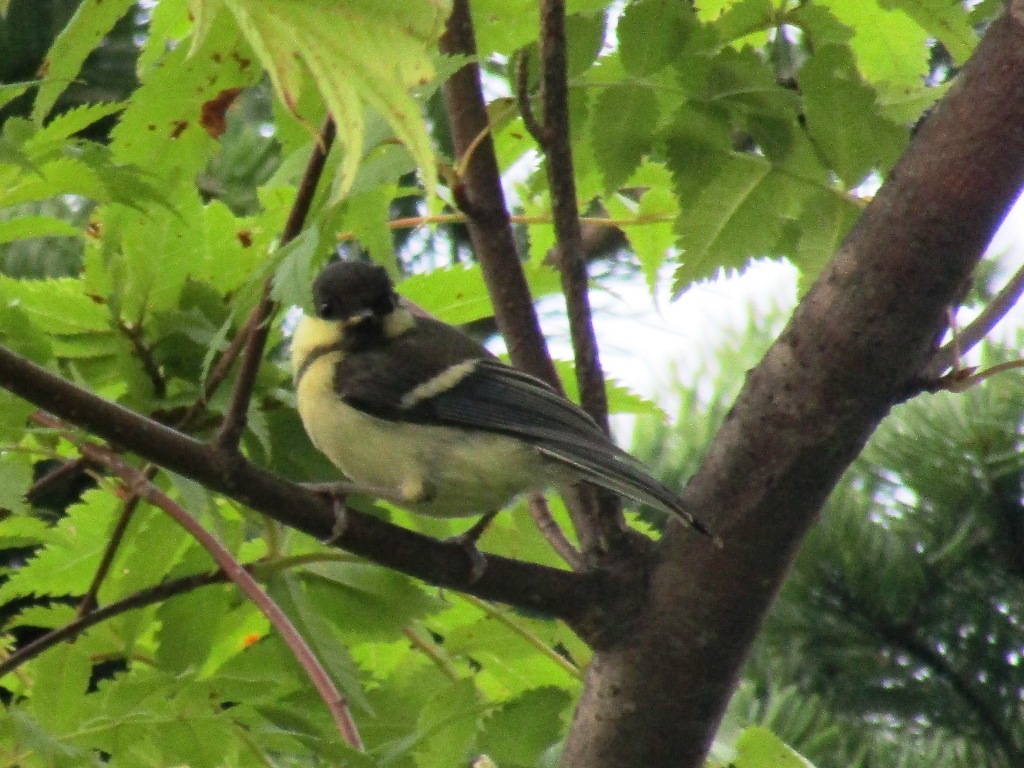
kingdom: Animalia
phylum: Chordata
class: Aves
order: Passeriformes
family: Paridae
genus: Parus
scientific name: Parus minor
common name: Japanese tit
